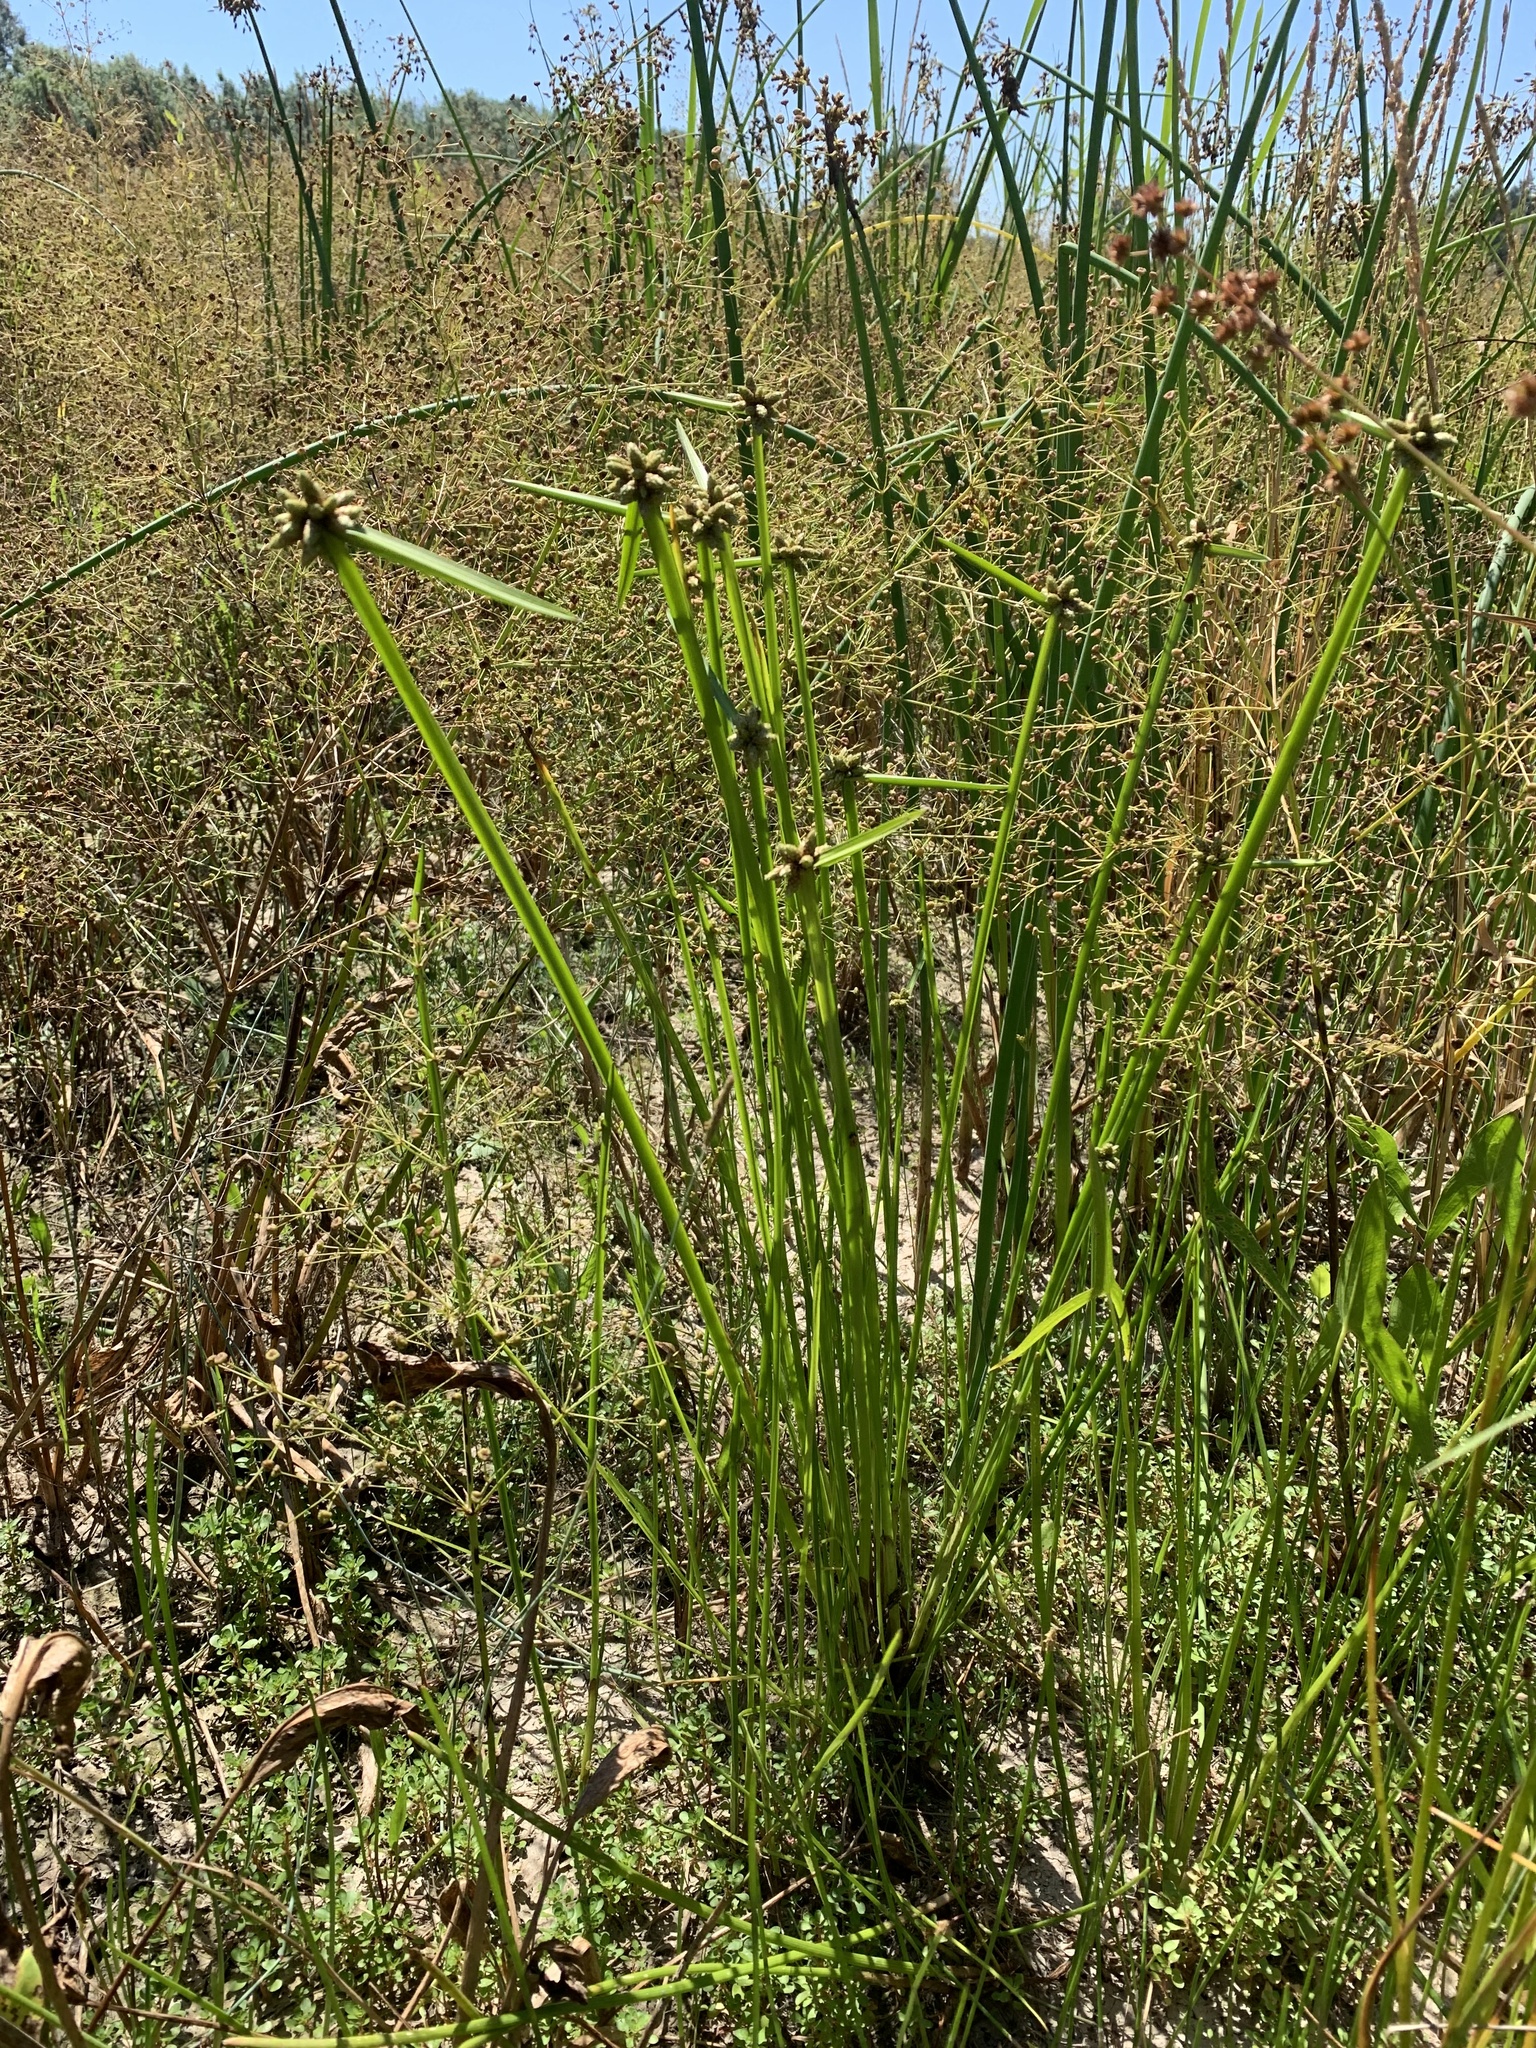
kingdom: Plantae
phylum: Tracheophyta
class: Liliopsida
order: Poales
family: Cyperaceae
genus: Schoenoplectiella
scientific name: Schoenoplectiella mucronata
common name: Bog bulrush
